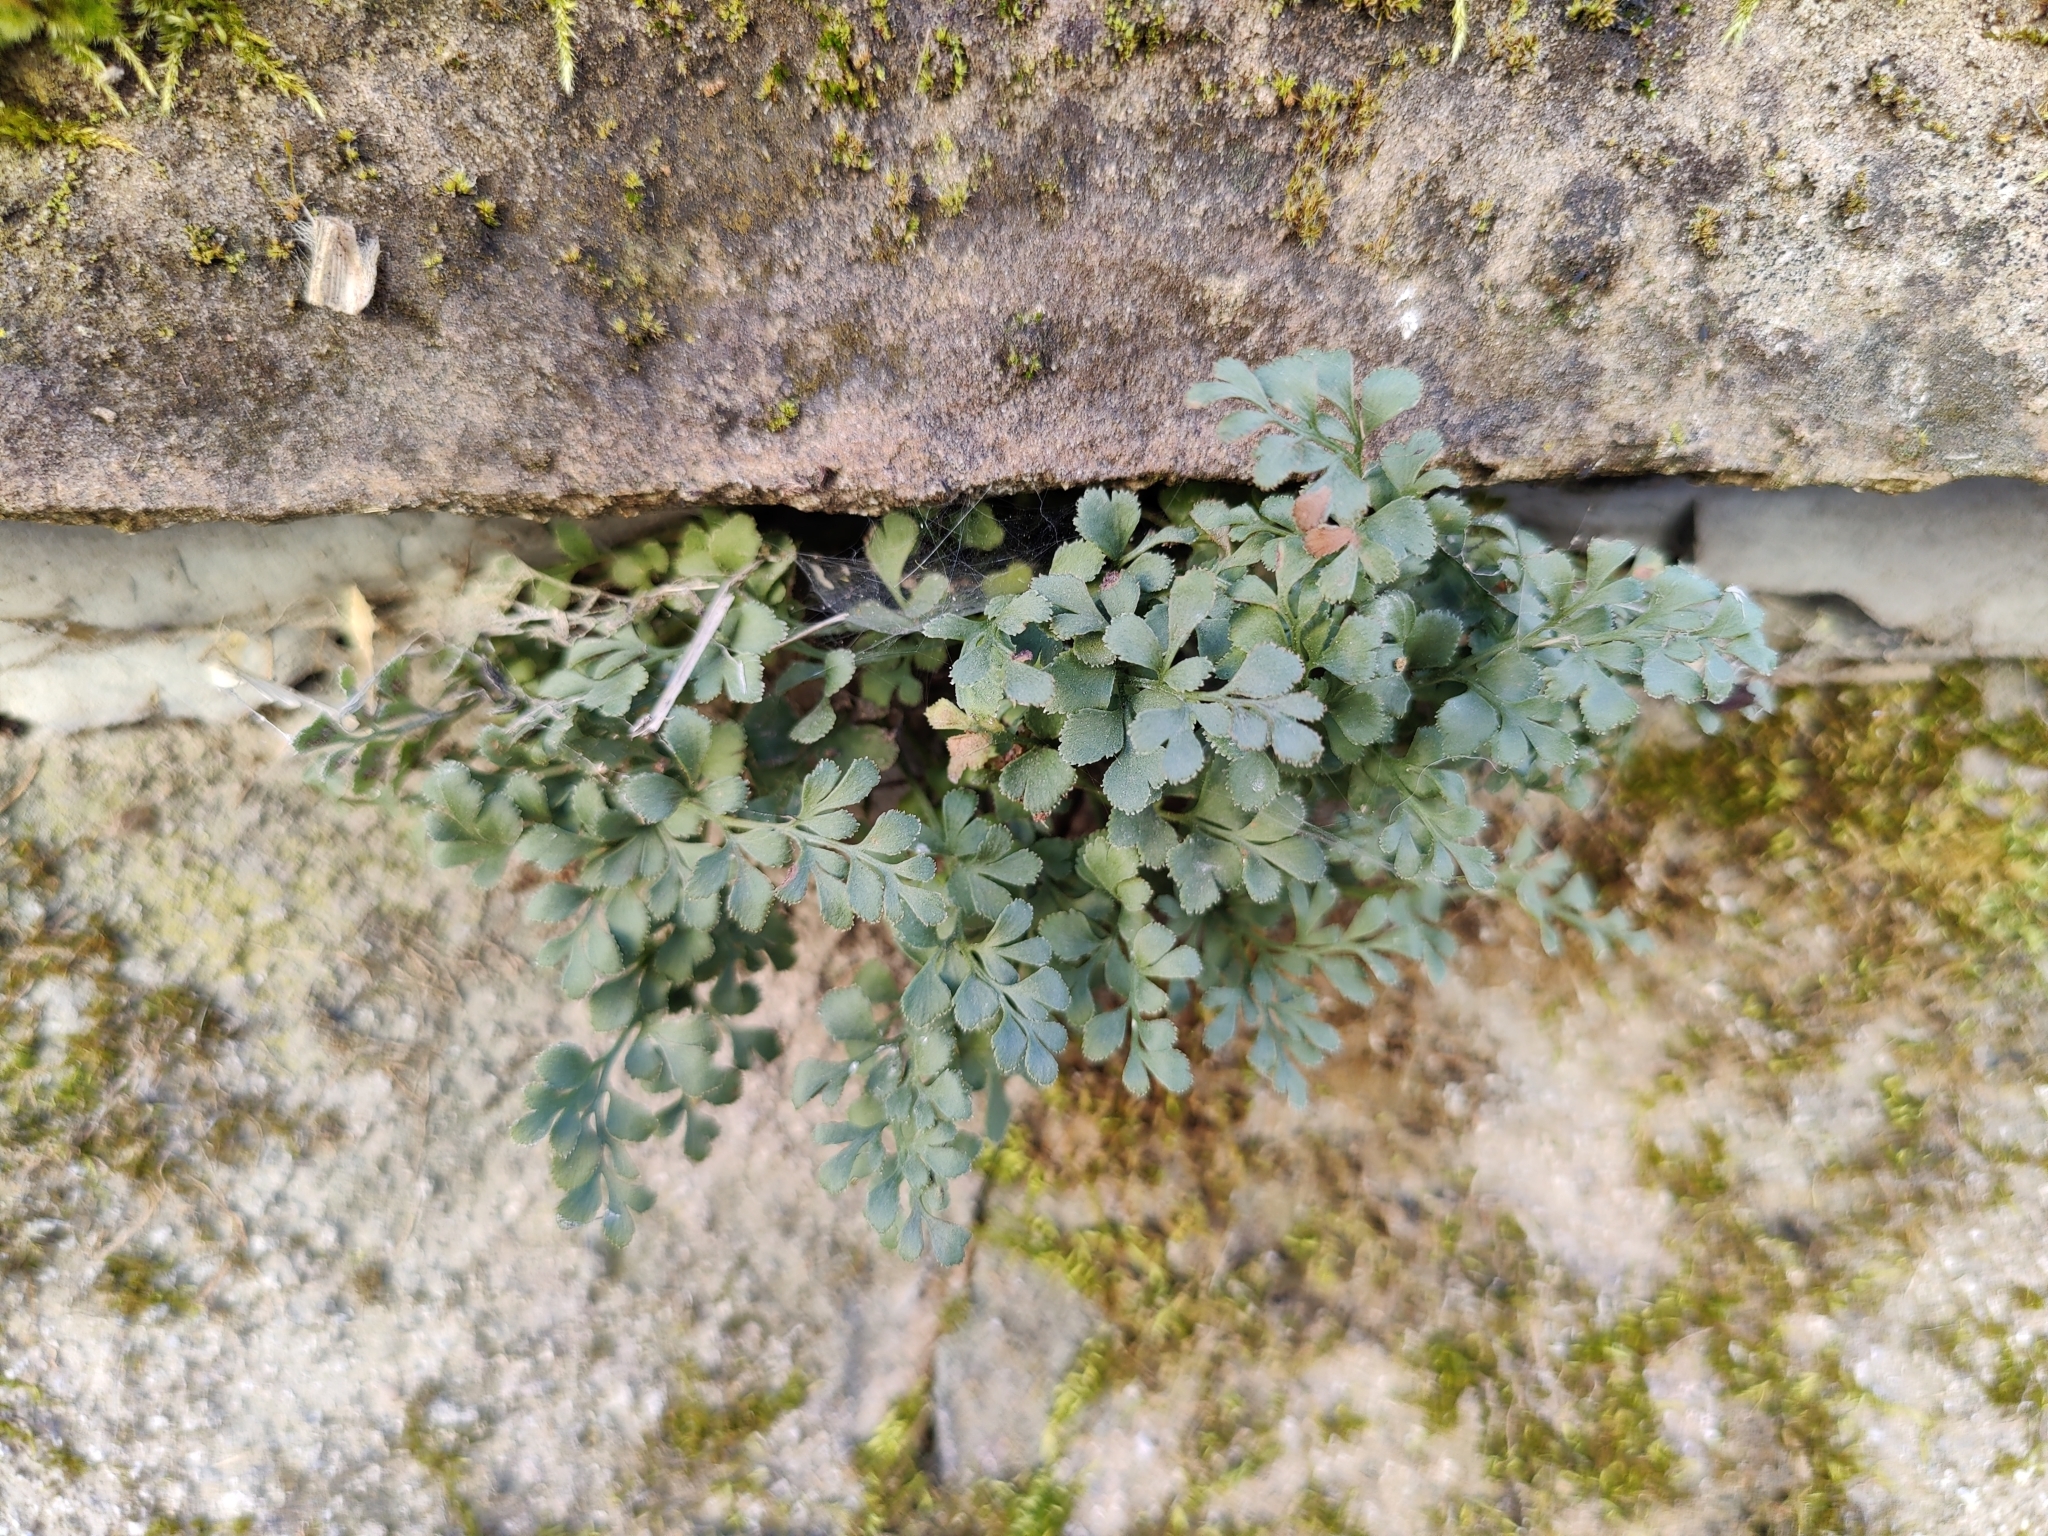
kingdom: Plantae
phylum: Tracheophyta
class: Polypodiopsida
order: Polypodiales
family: Aspleniaceae
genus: Asplenium
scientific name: Asplenium ruta-muraria
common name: Wall-rue
